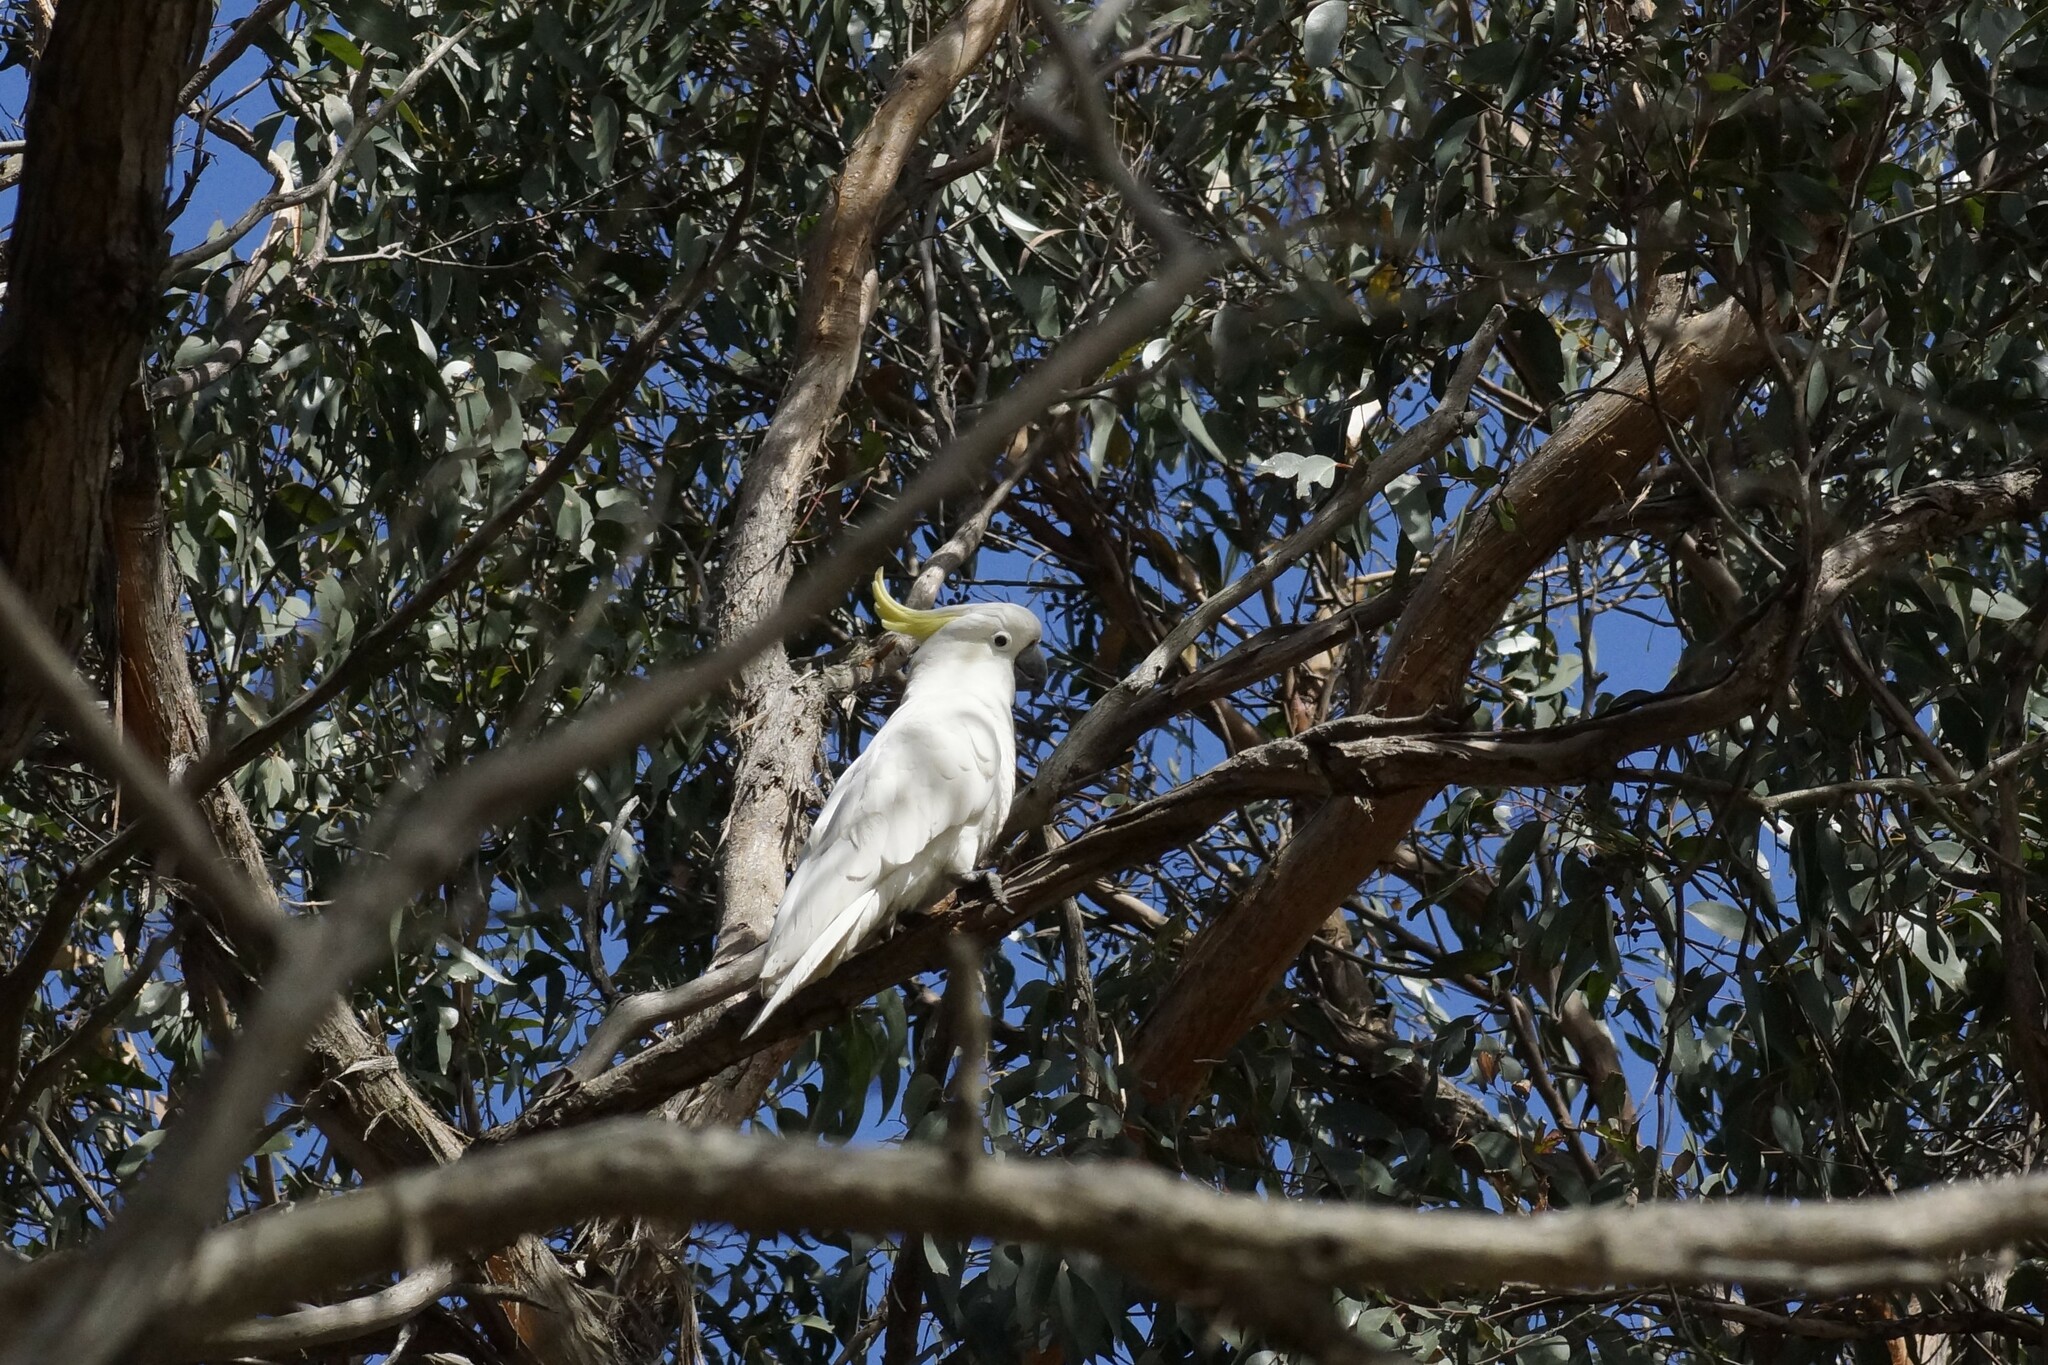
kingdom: Animalia
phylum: Chordata
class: Aves
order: Psittaciformes
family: Psittacidae
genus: Cacatua
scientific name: Cacatua galerita
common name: Sulphur-crested cockatoo
